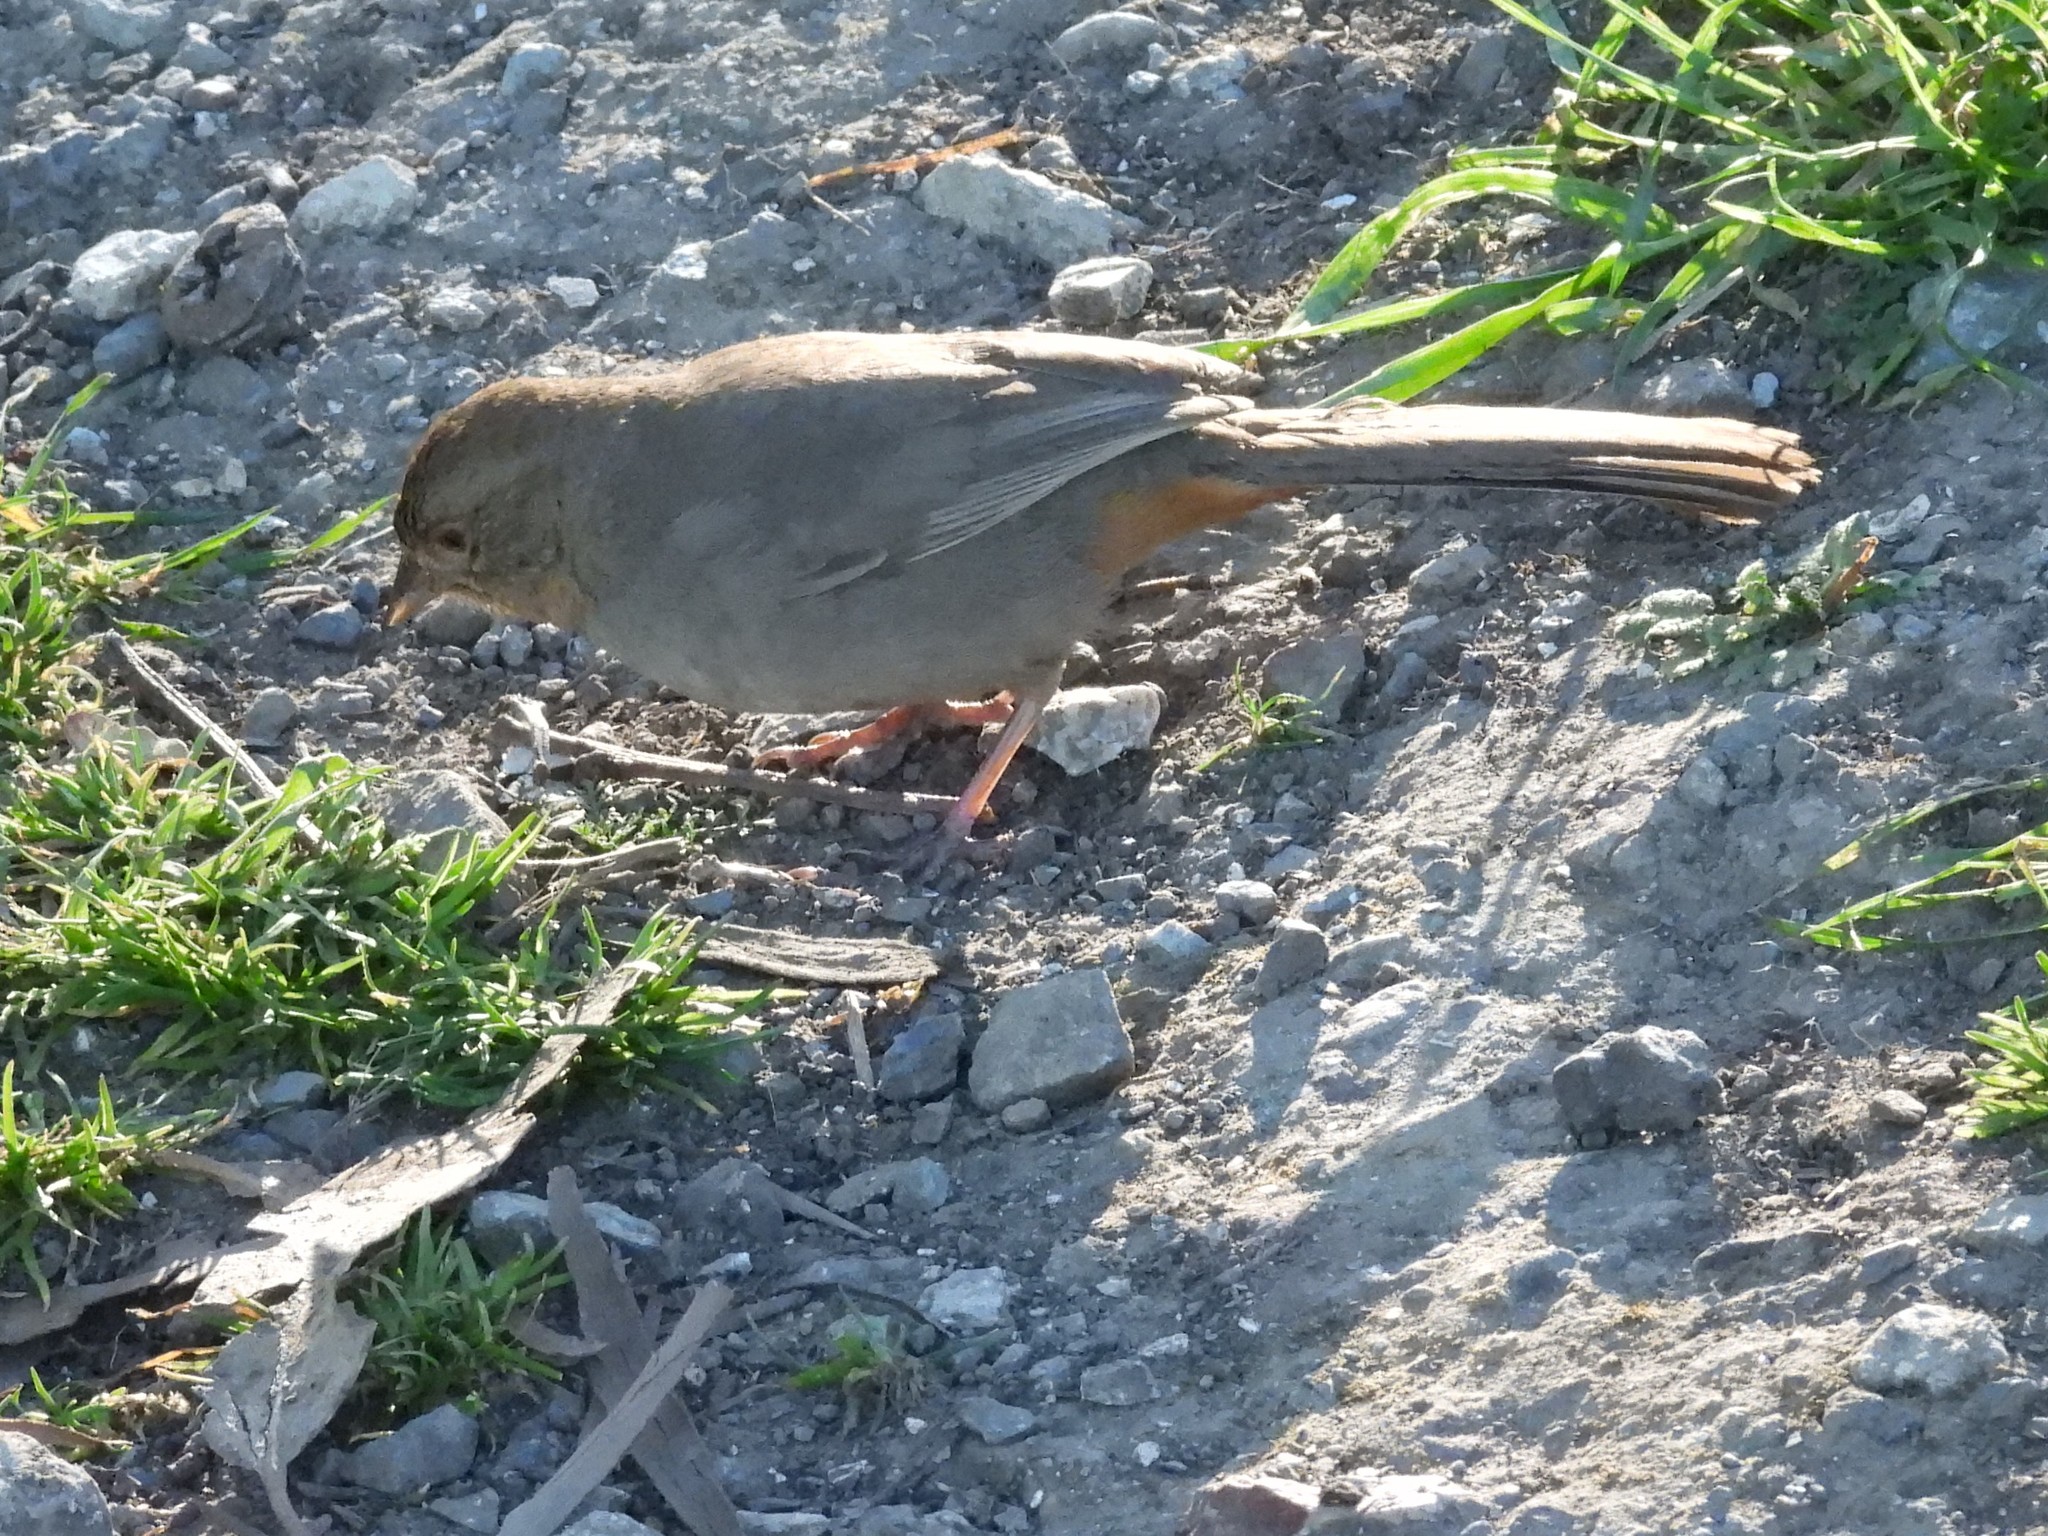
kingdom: Animalia
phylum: Chordata
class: Aves
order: Passeriformes
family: Passerellidae
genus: Melozone
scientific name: Melozone crissalis
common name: California towhee
